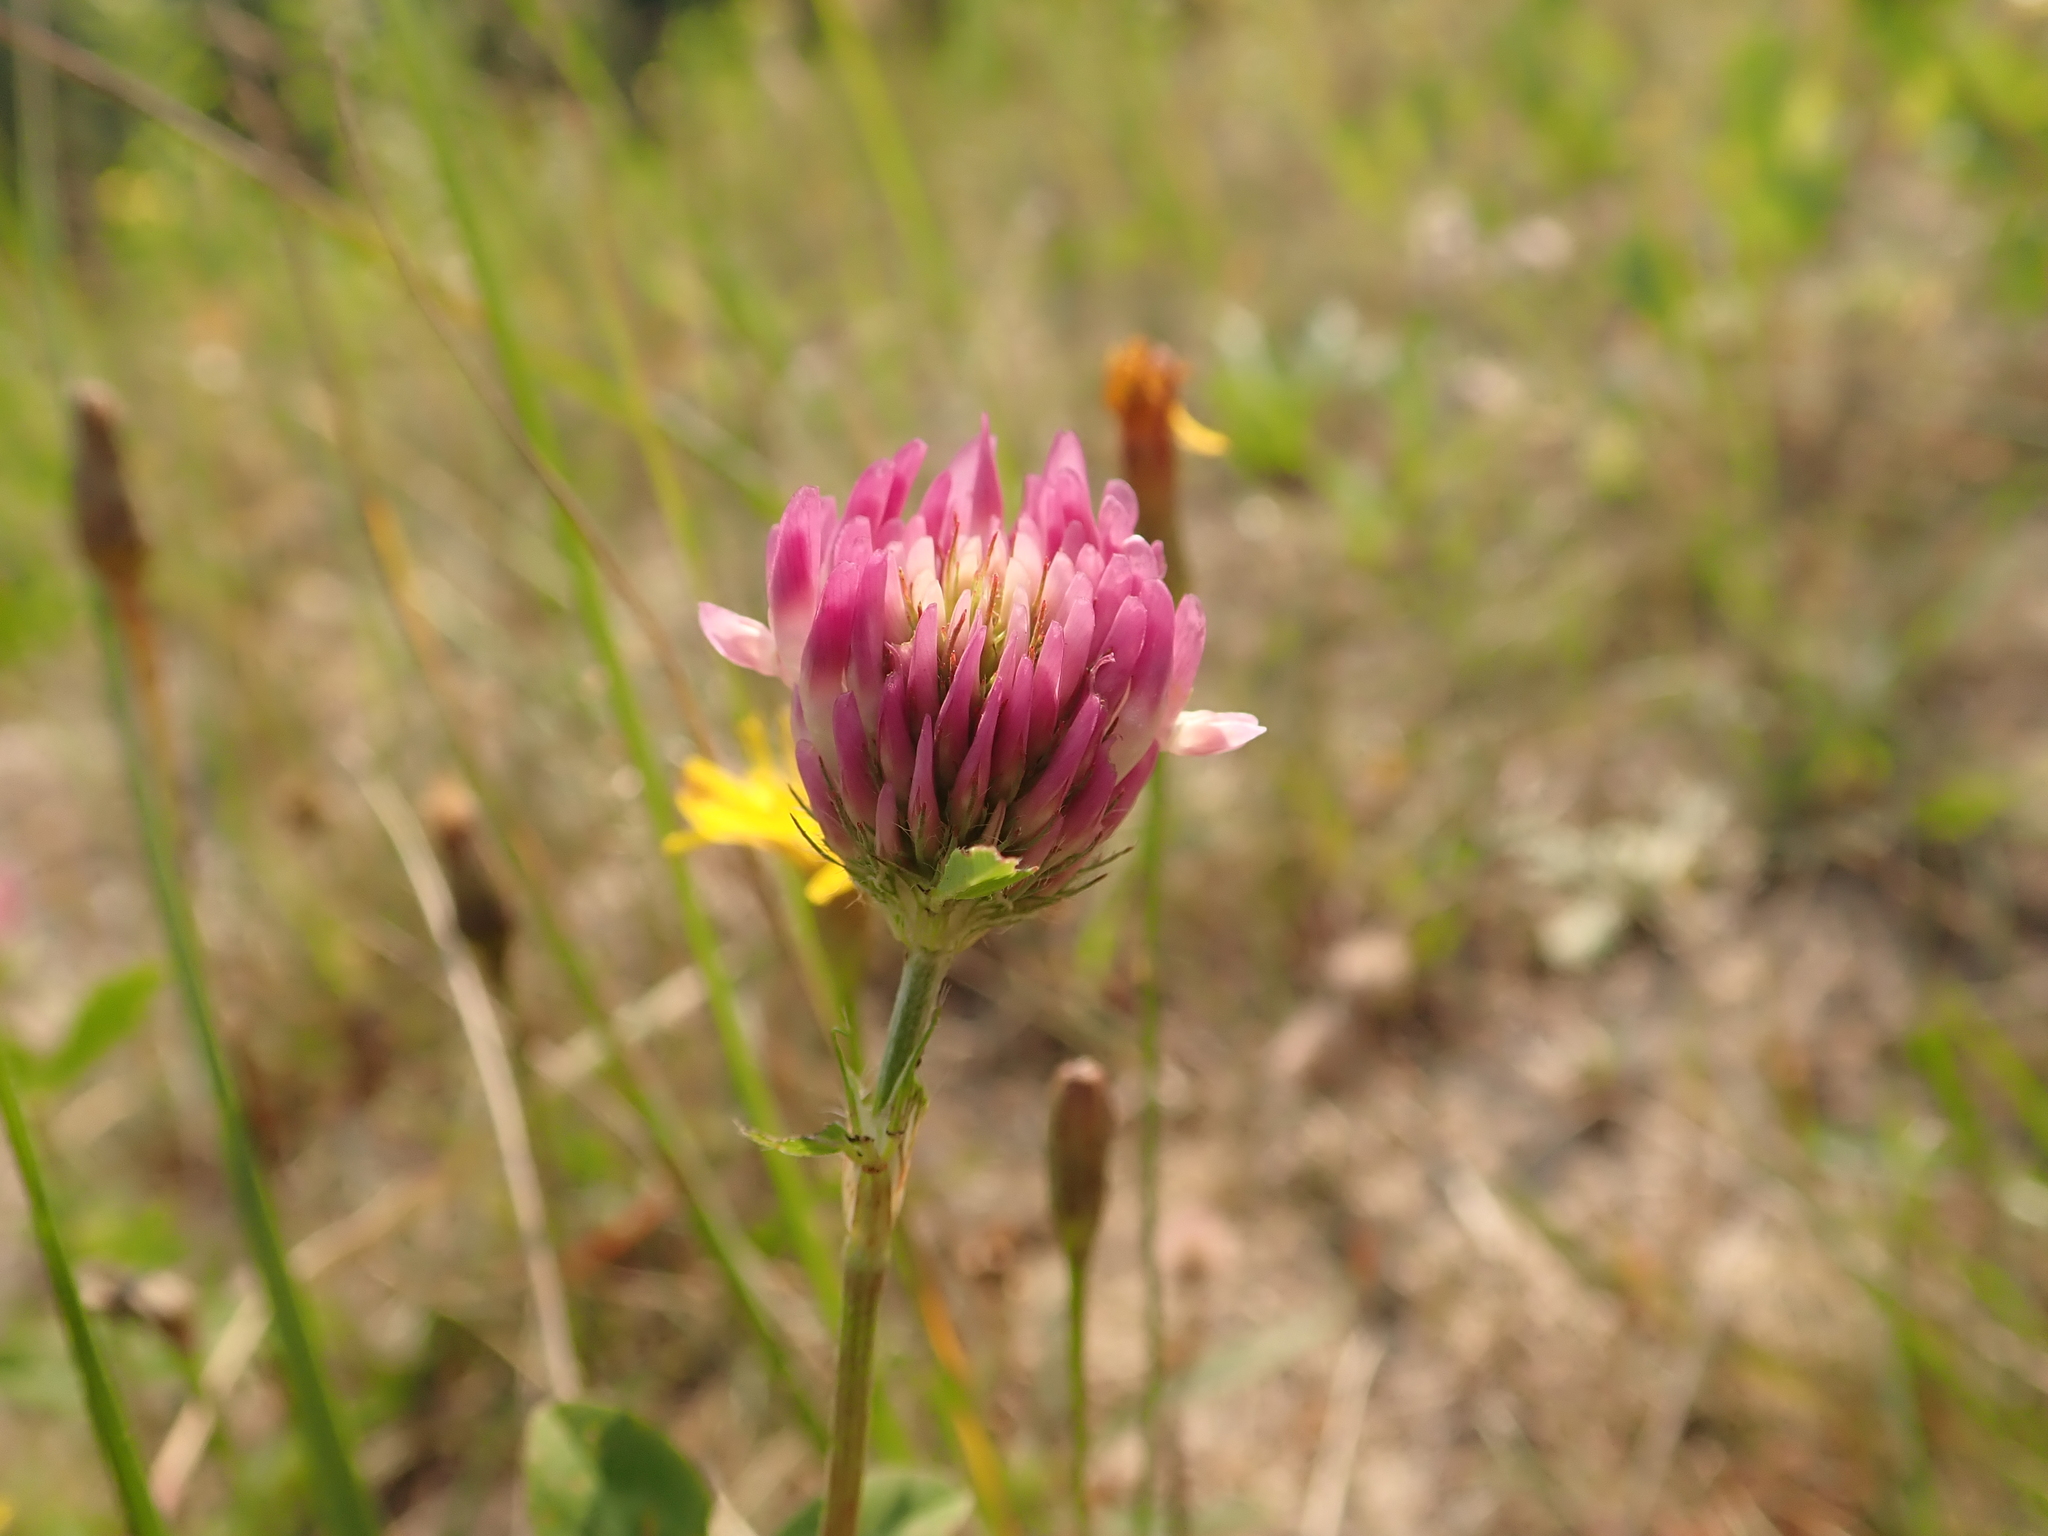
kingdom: Plantae
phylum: Tracheophyta
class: Magnoliopsida
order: Fabales
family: Fabaceae
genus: Trifolium
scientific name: Trifolium pratense
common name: Red clover
